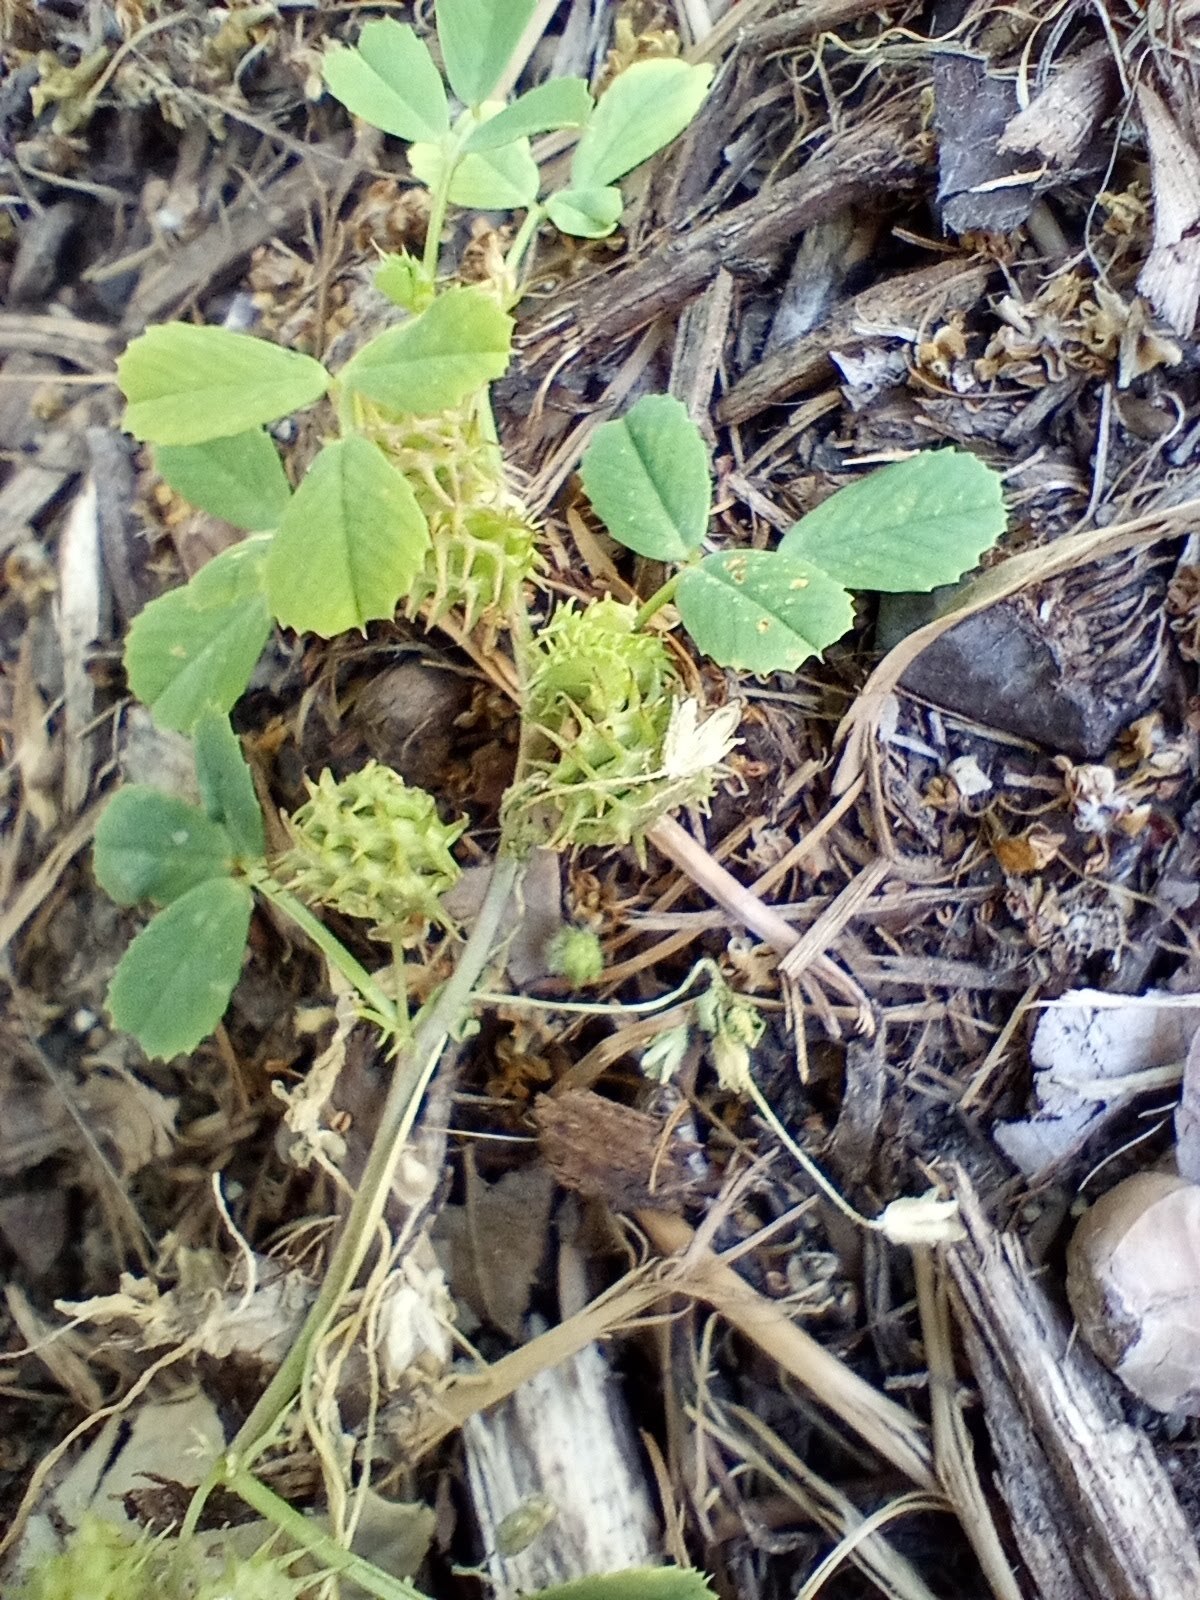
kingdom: Plantae
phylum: Tracheophyta
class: Magnoliopsida
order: Fabales
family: Fabaceae
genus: Medicago
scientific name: Medicago polymorpha
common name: Burclover
